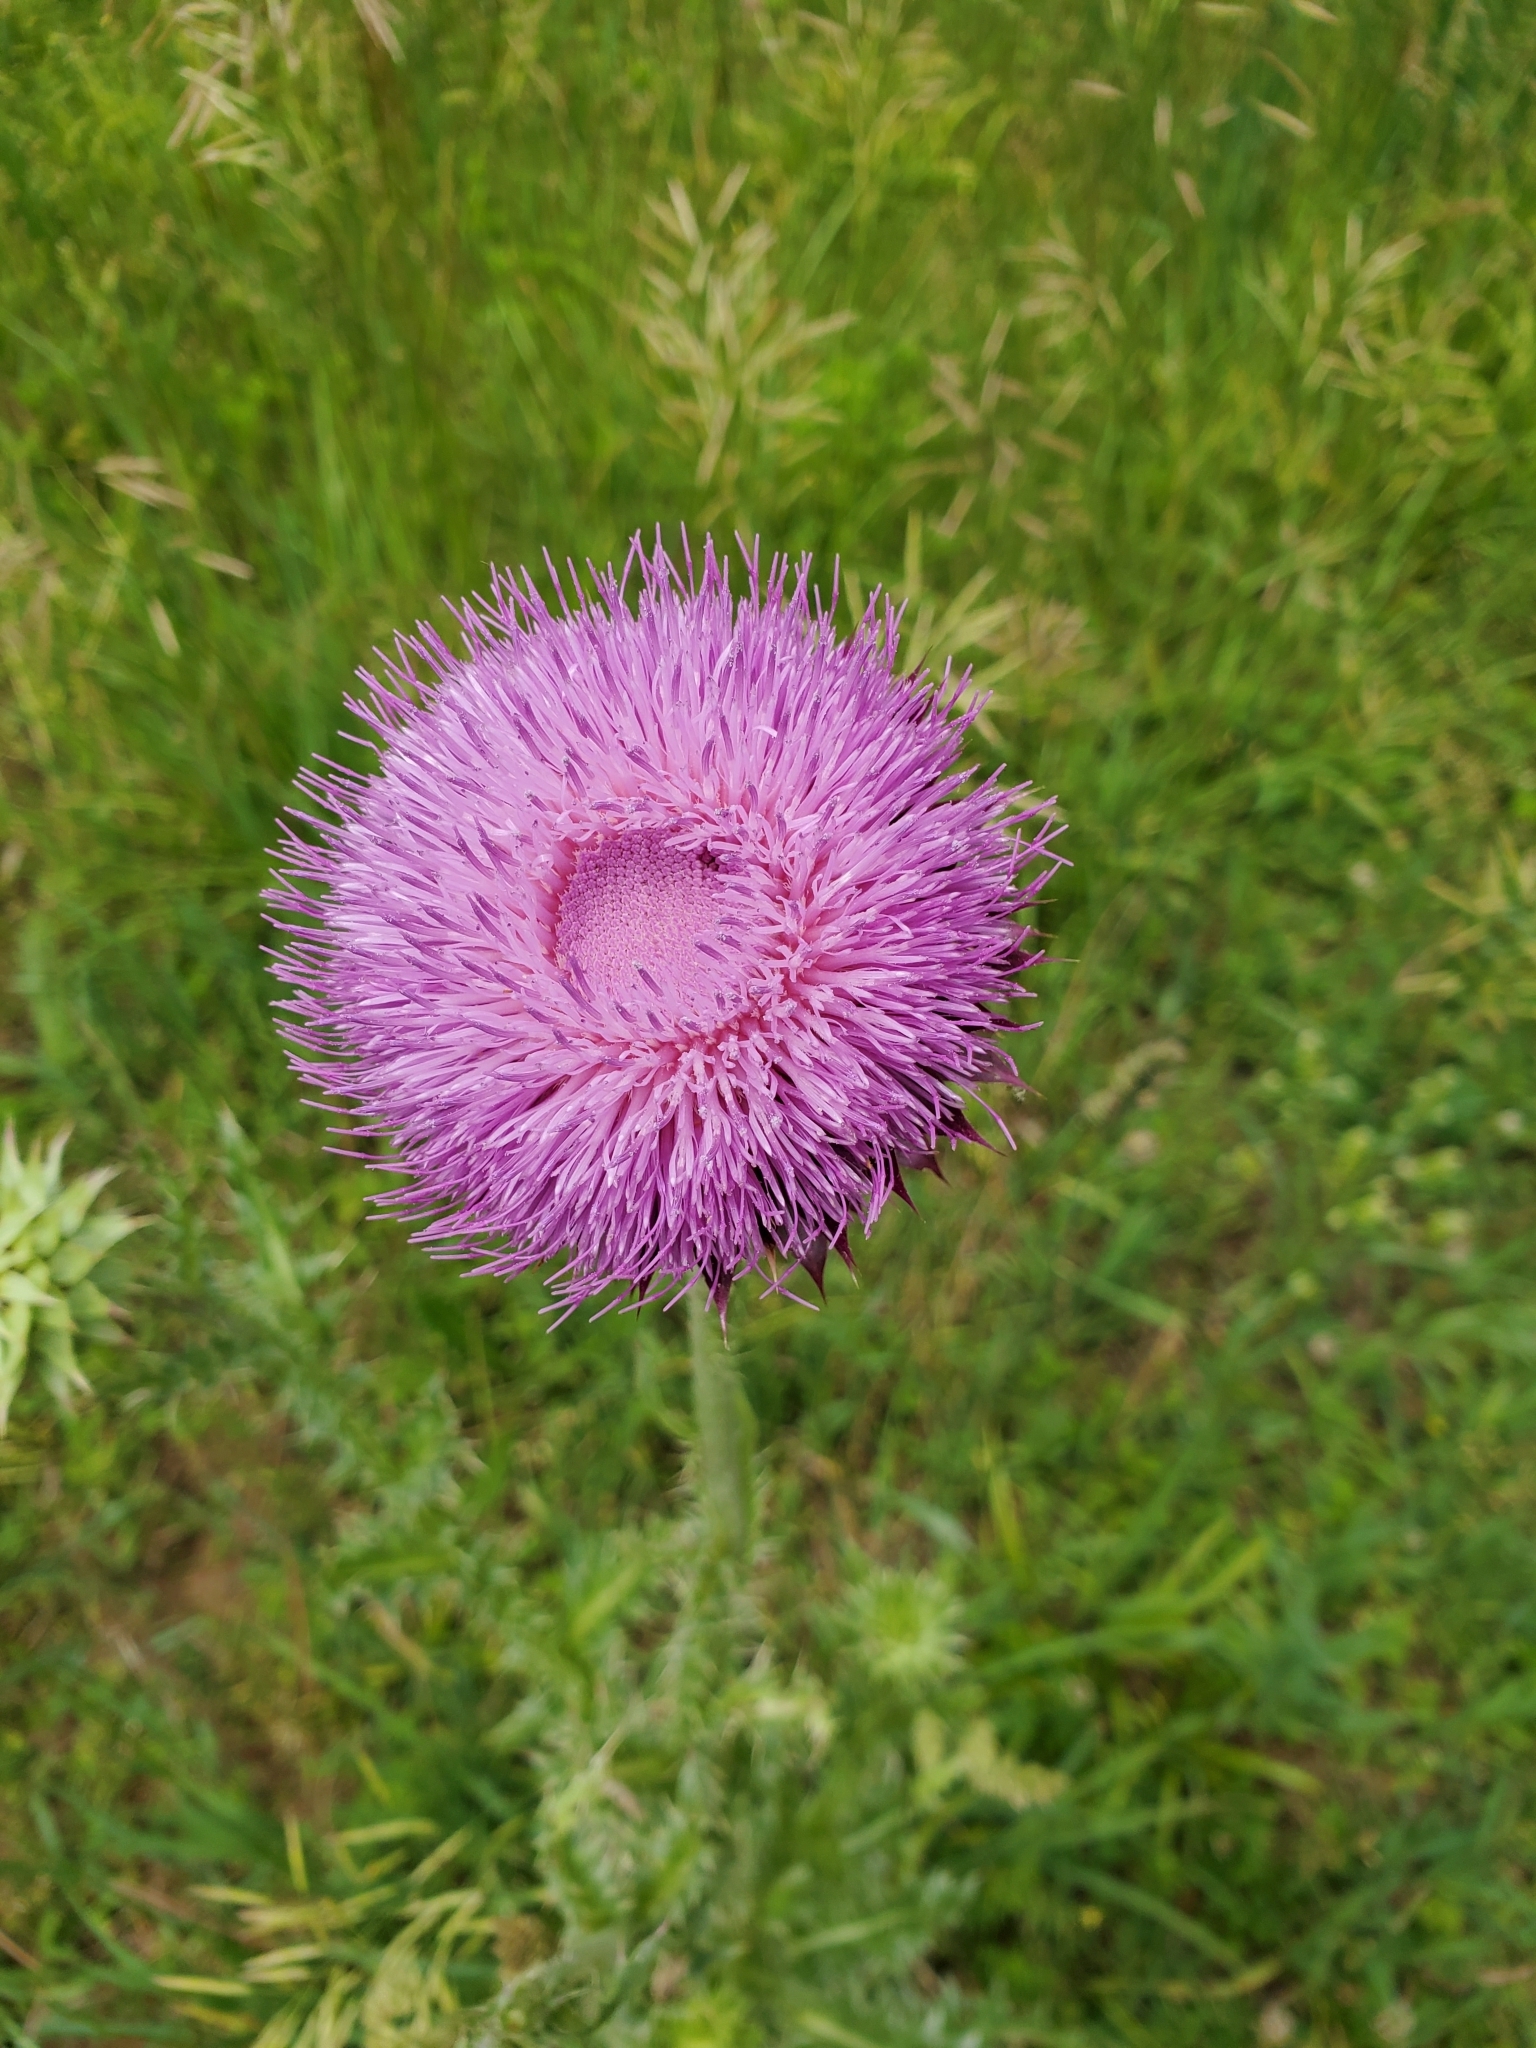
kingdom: Plantae
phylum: Tracheophyta
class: Magnoliopsida
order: Asterales
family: Asteraceae
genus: Carduus
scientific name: Carduus nutans
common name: Musk thistle
